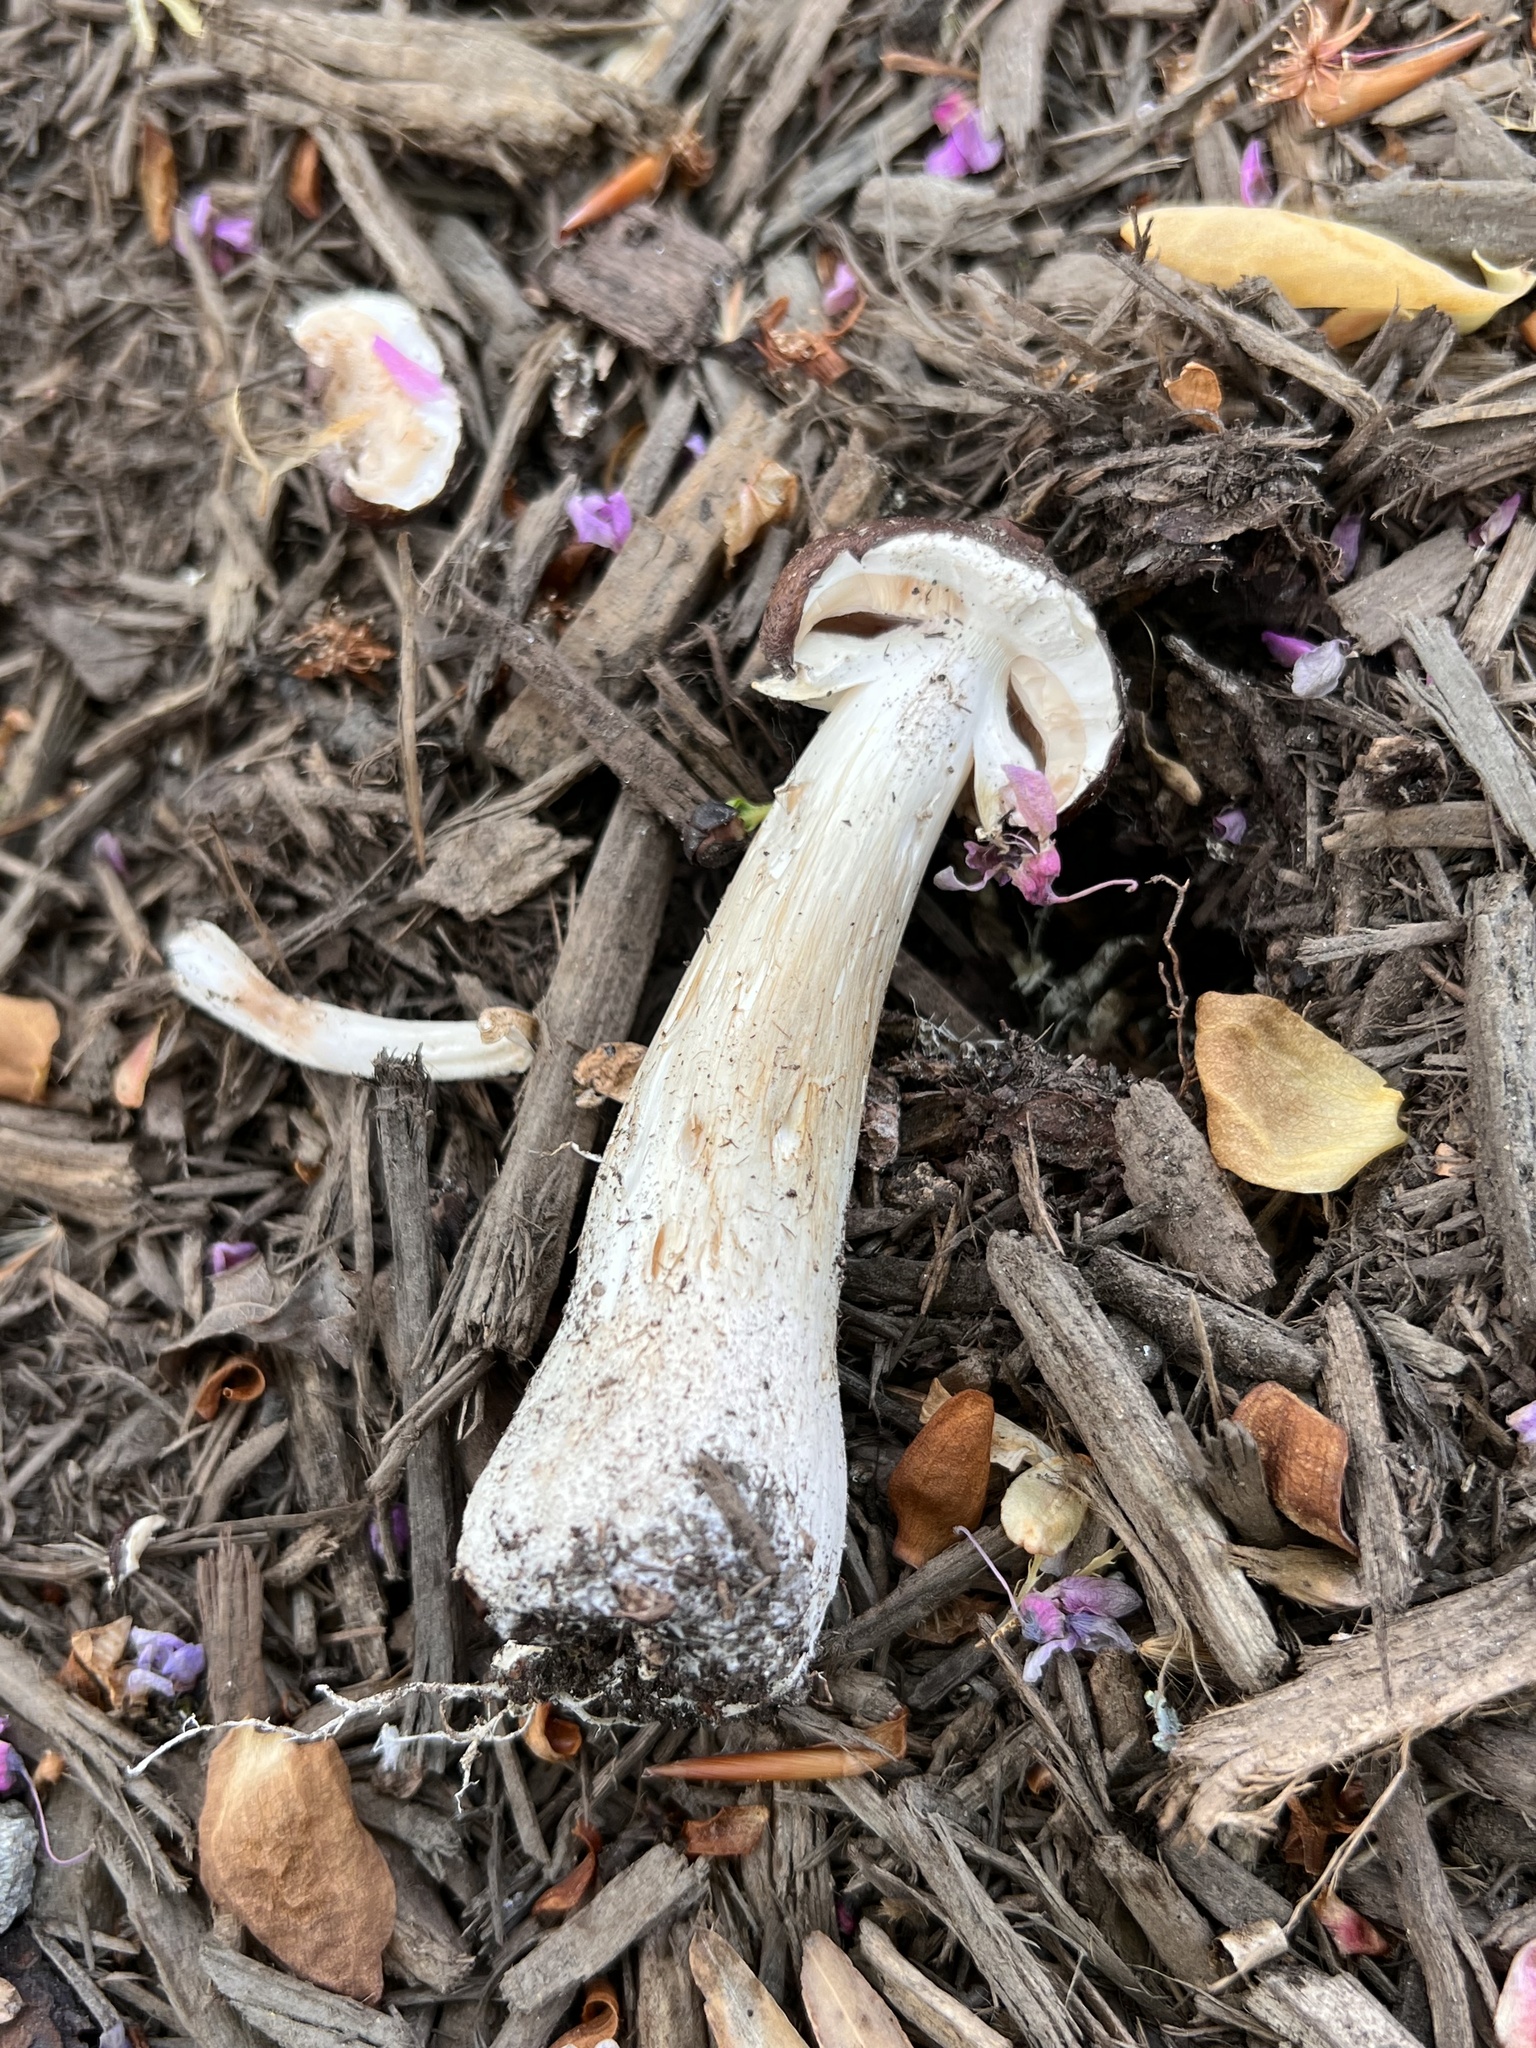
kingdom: Fungi
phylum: Basidiomycota
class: Agaricomycetes
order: Agaricales
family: Strophariaceae
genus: Stropharia
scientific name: Stropharia rugosoannulata
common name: Wine roundhead
